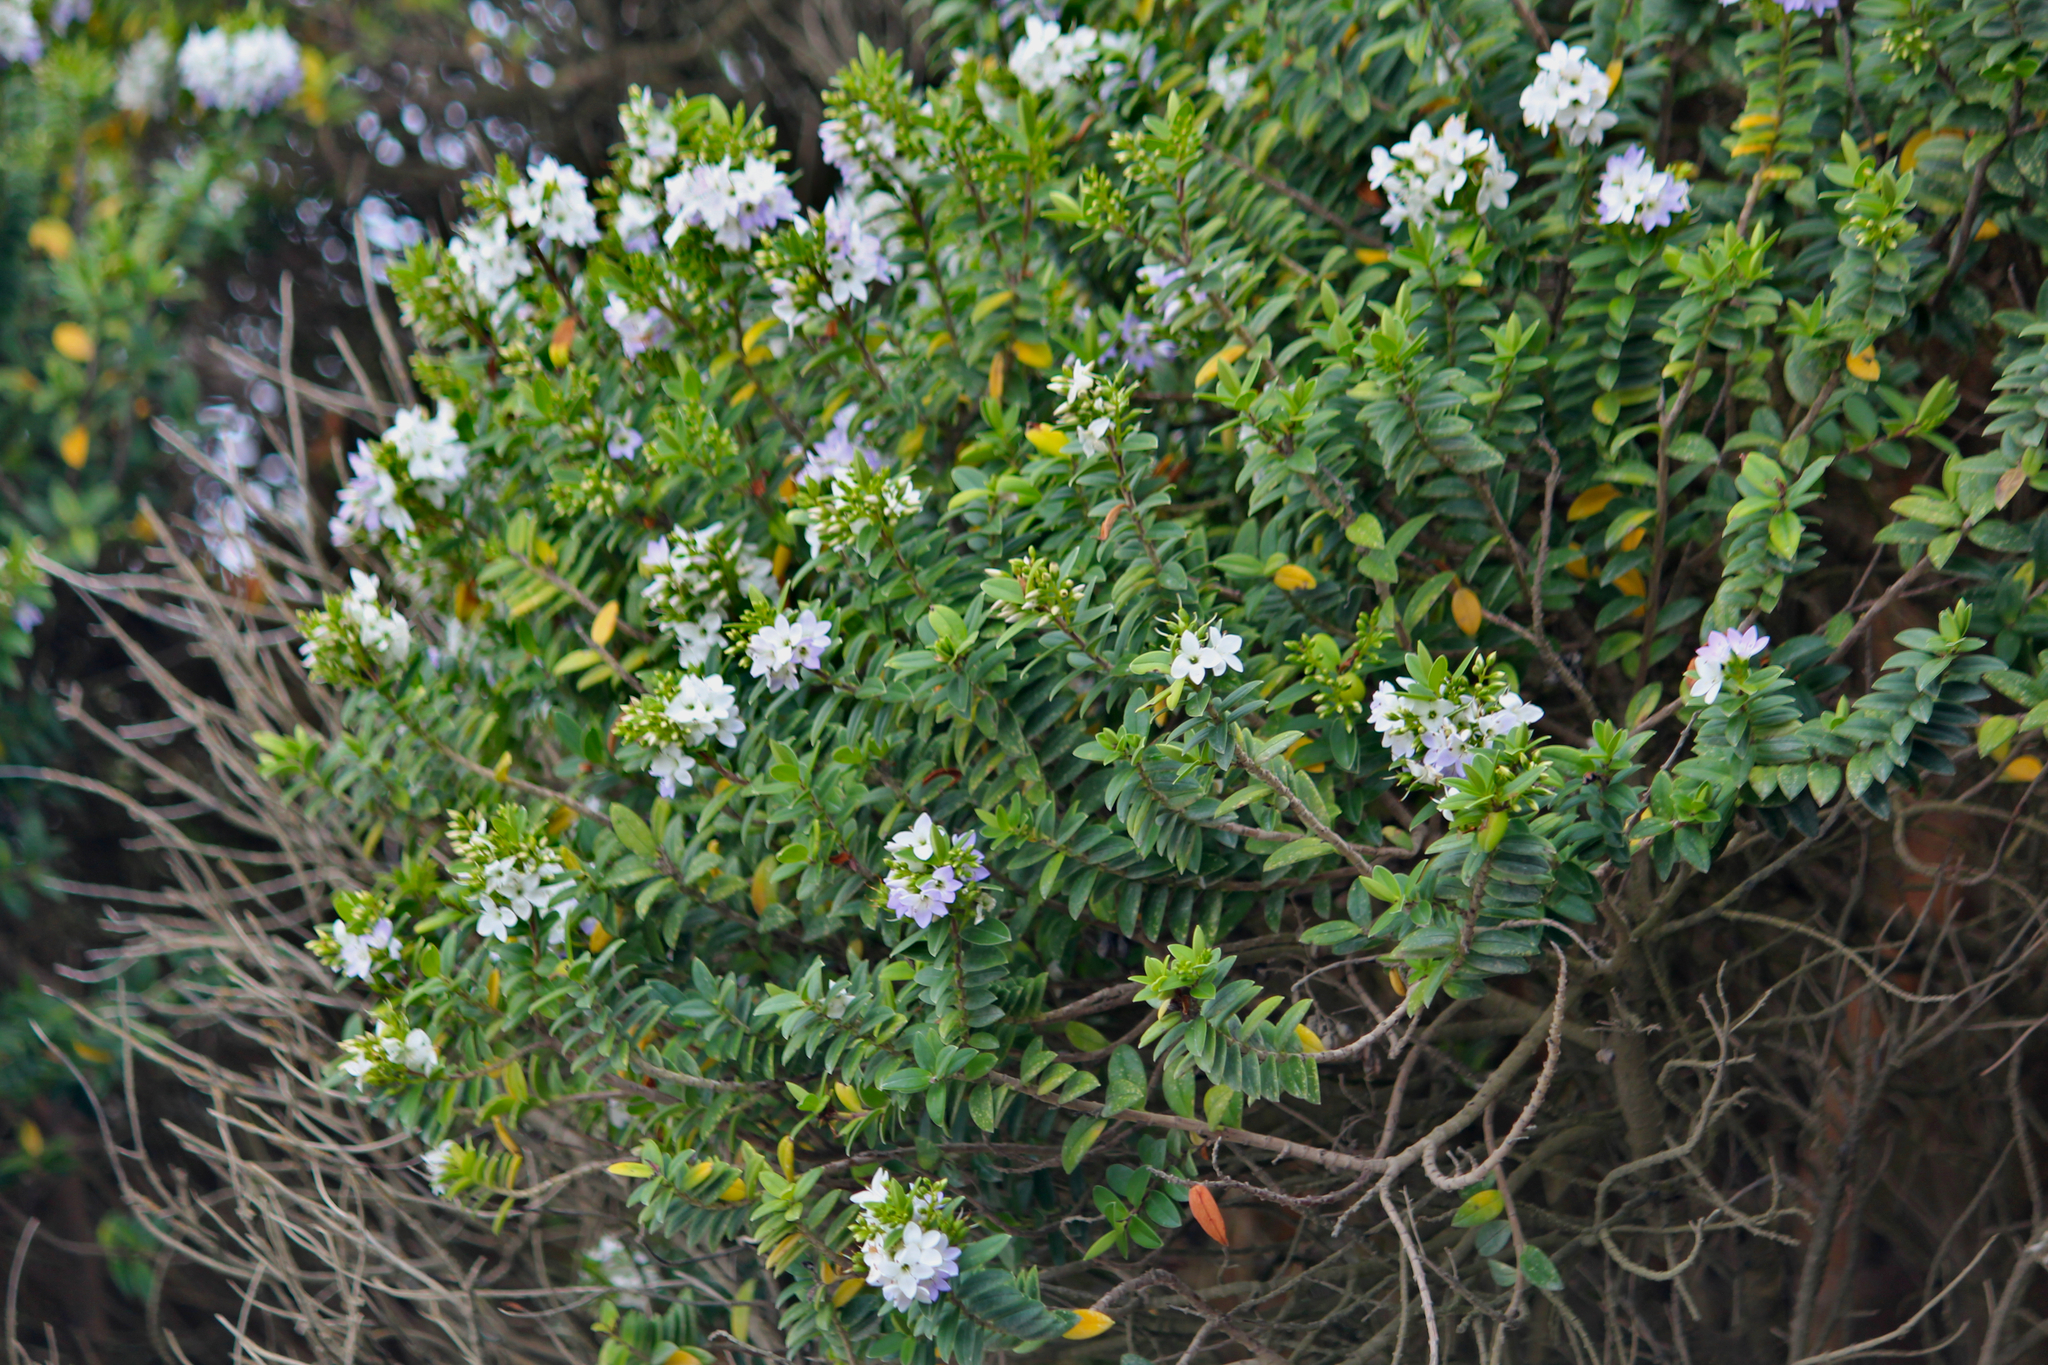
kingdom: Plantae
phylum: Tracheophyta
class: Magnoliopsida
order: Lamiales
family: Plantaginaceae
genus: Veronica
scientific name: Veronica elliptica
